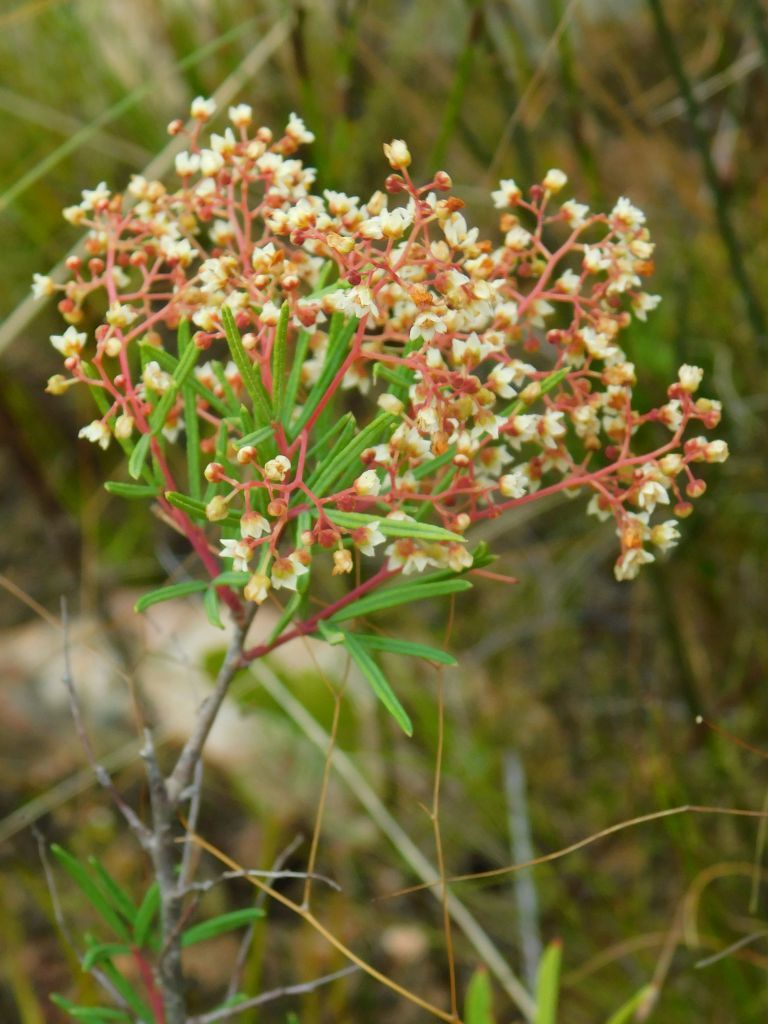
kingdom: Plantae
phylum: Tracheophyta
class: Magnoliopsida
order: Sapindales
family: Anacardiaceae
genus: Searsia
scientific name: Searsia rosmarinifolia
